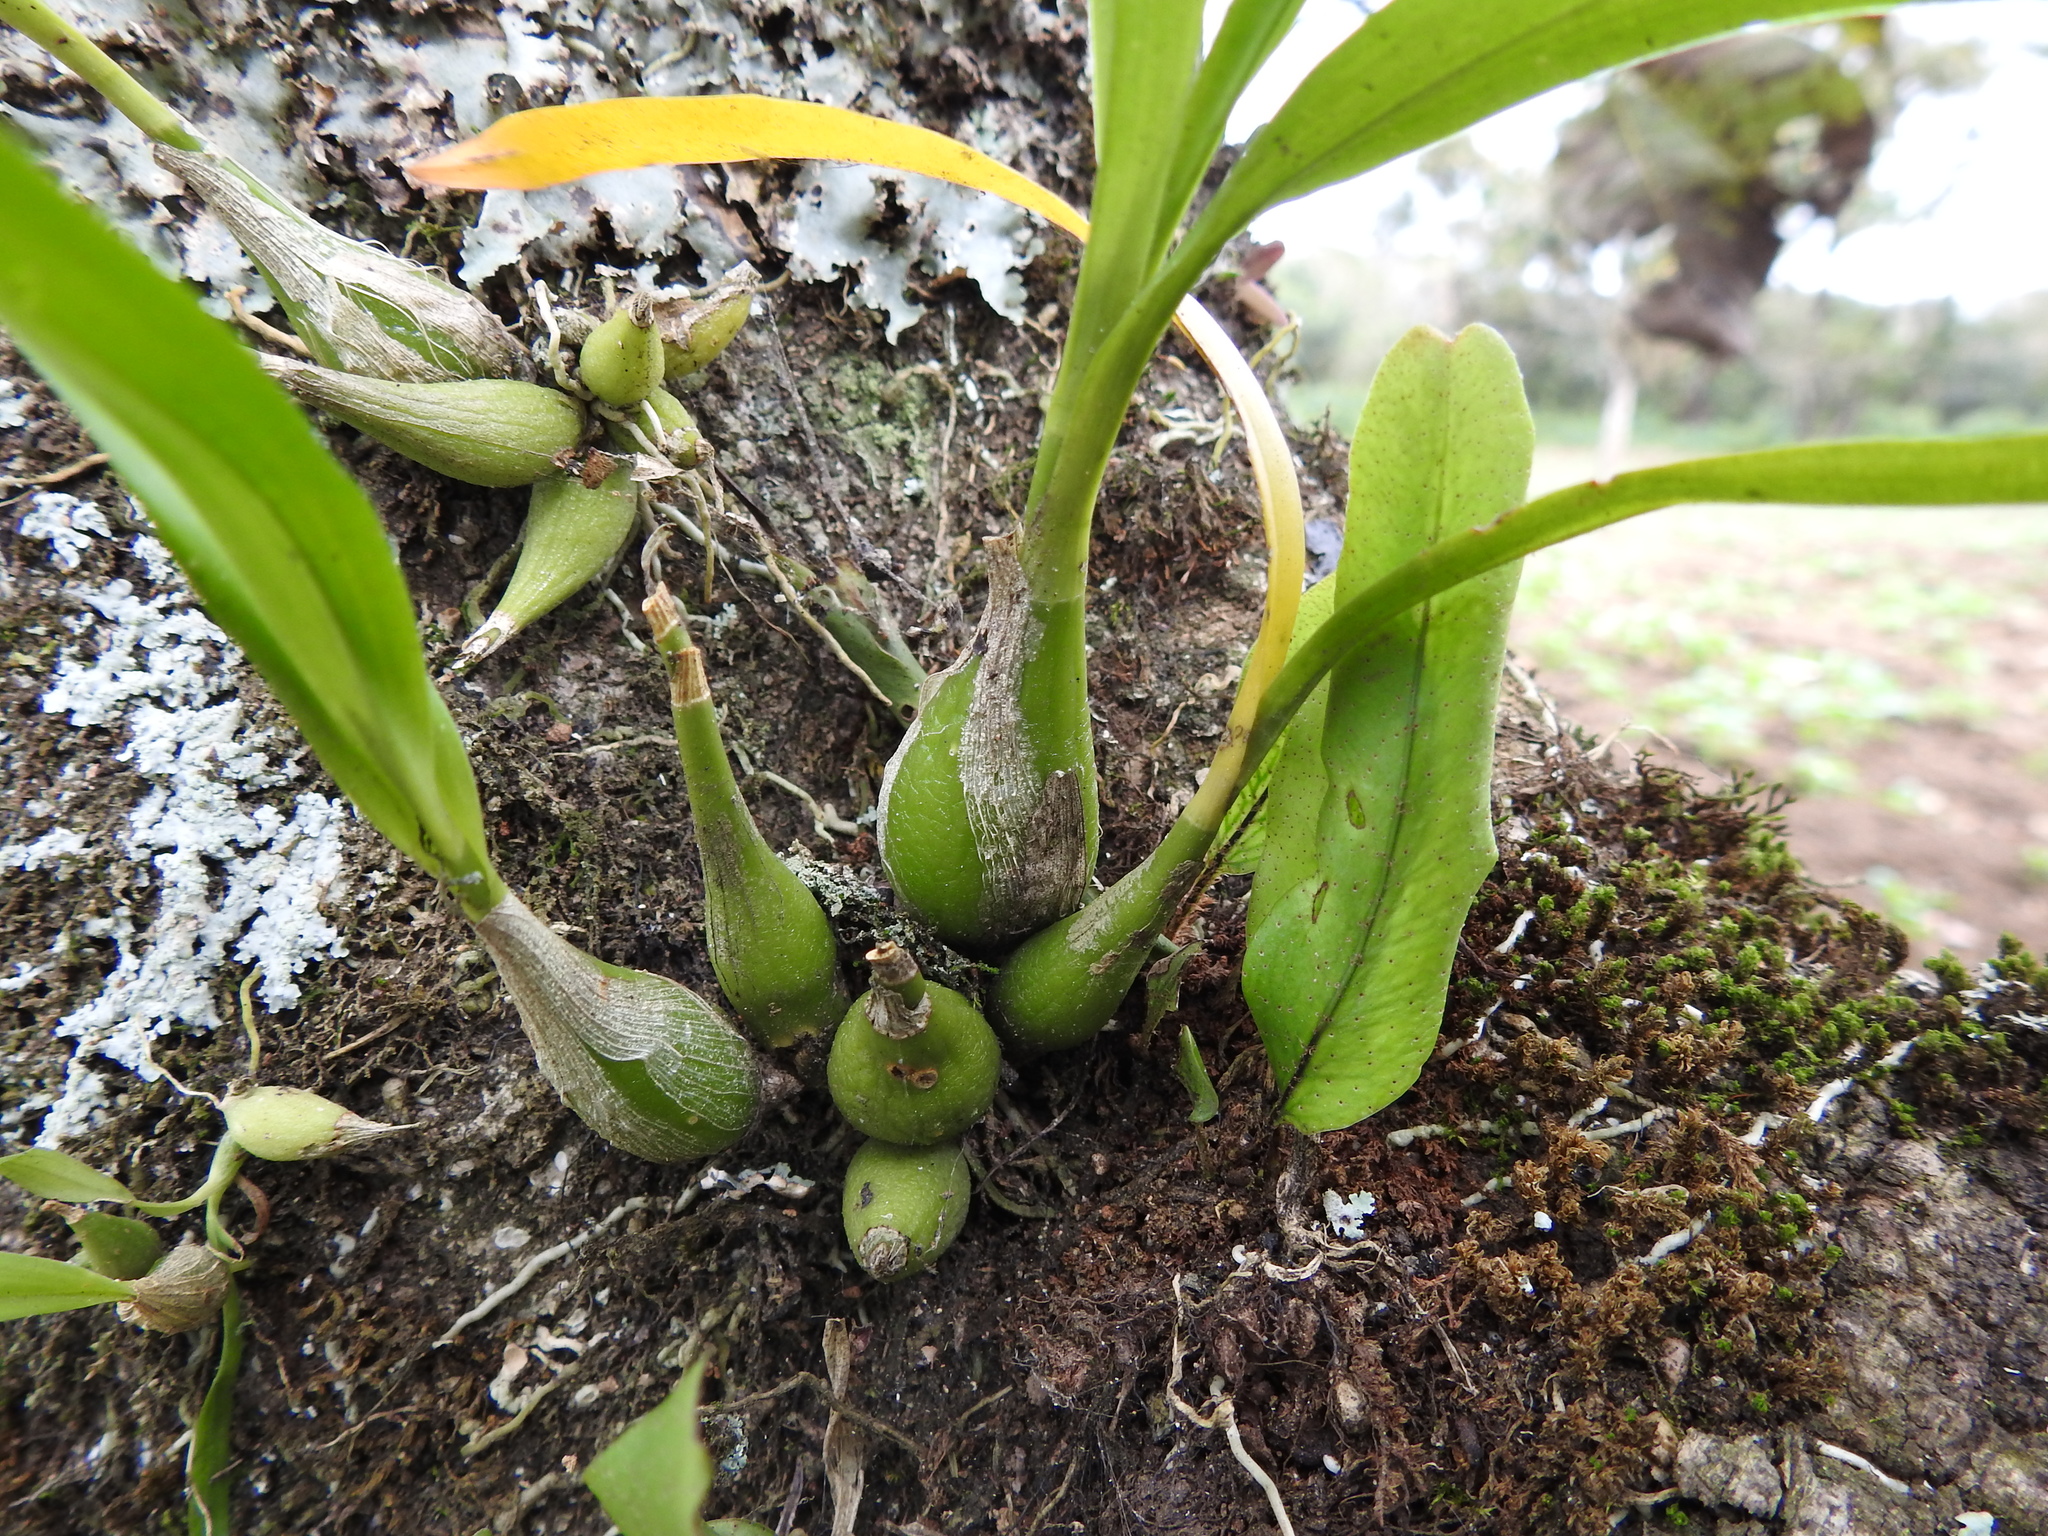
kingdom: Plantae
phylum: Tracheophyta
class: Liliopsida
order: Asparagales
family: Orchidaceae
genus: Prosthechea
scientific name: Prosthechea ochracea
